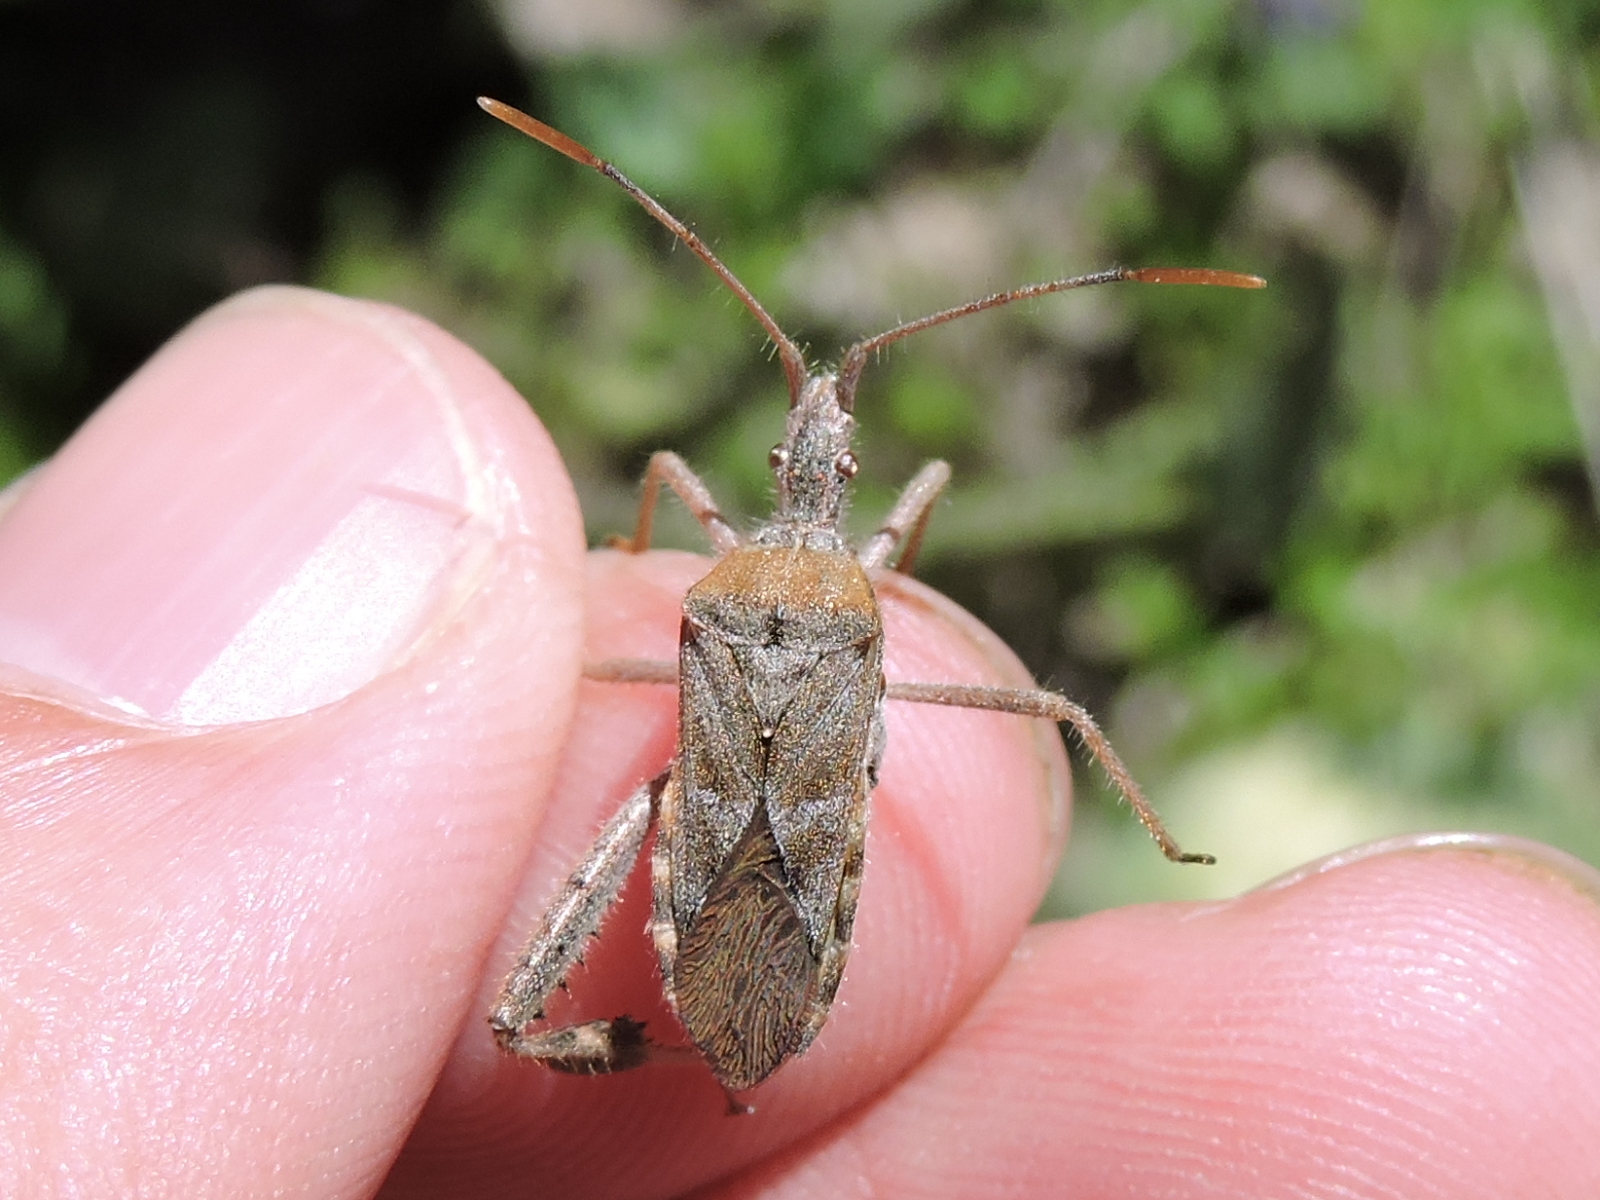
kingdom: Animalia
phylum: Arthropoda
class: Insecta
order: Hemiptera
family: Coreidae
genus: Narnia
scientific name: Narnia femorata
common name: Leaf-footed cactus bug
